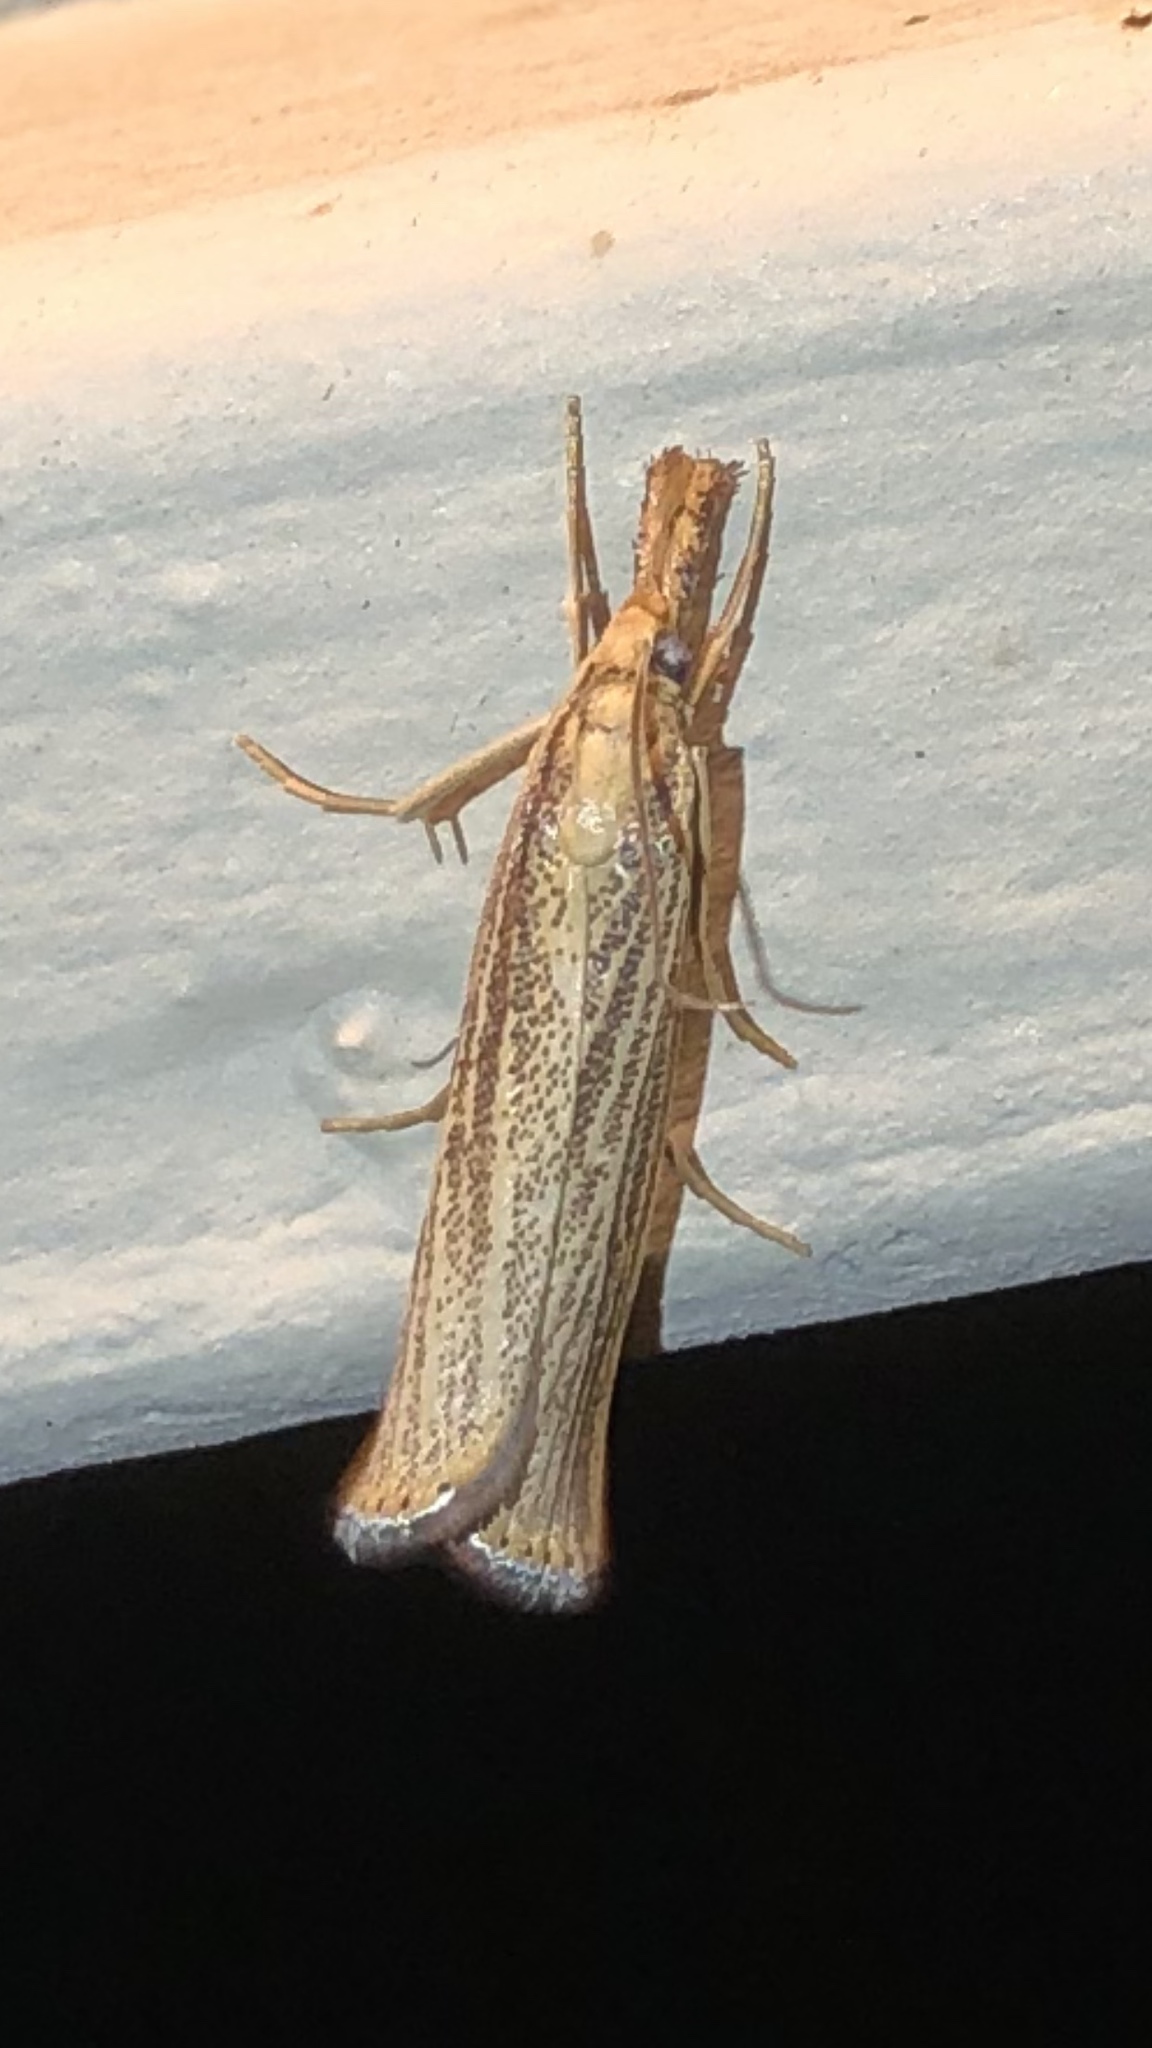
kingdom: Animalia
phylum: Arthropoda
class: Insecta
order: Lepidoptera
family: Crambidae
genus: Agriphila
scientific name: Agriphila vulgivagellus
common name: Vagabond crambus moth
